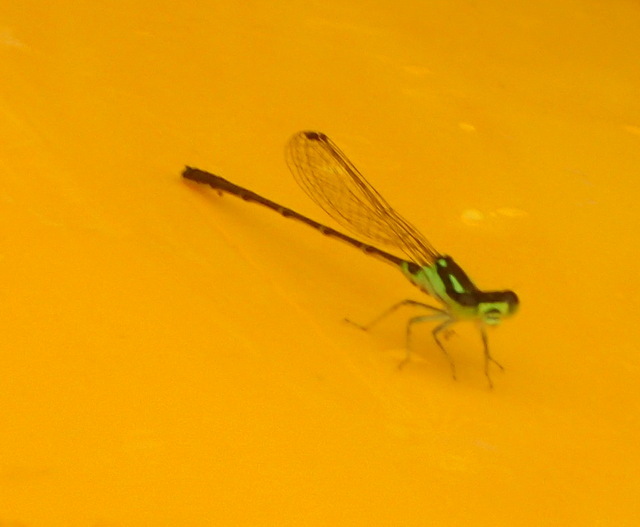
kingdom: Animalia
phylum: Arthropoda
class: Insecta
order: Odonata
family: Coenagrionidae
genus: Ischnura
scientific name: Ischnura posita
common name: Fragile forktail
